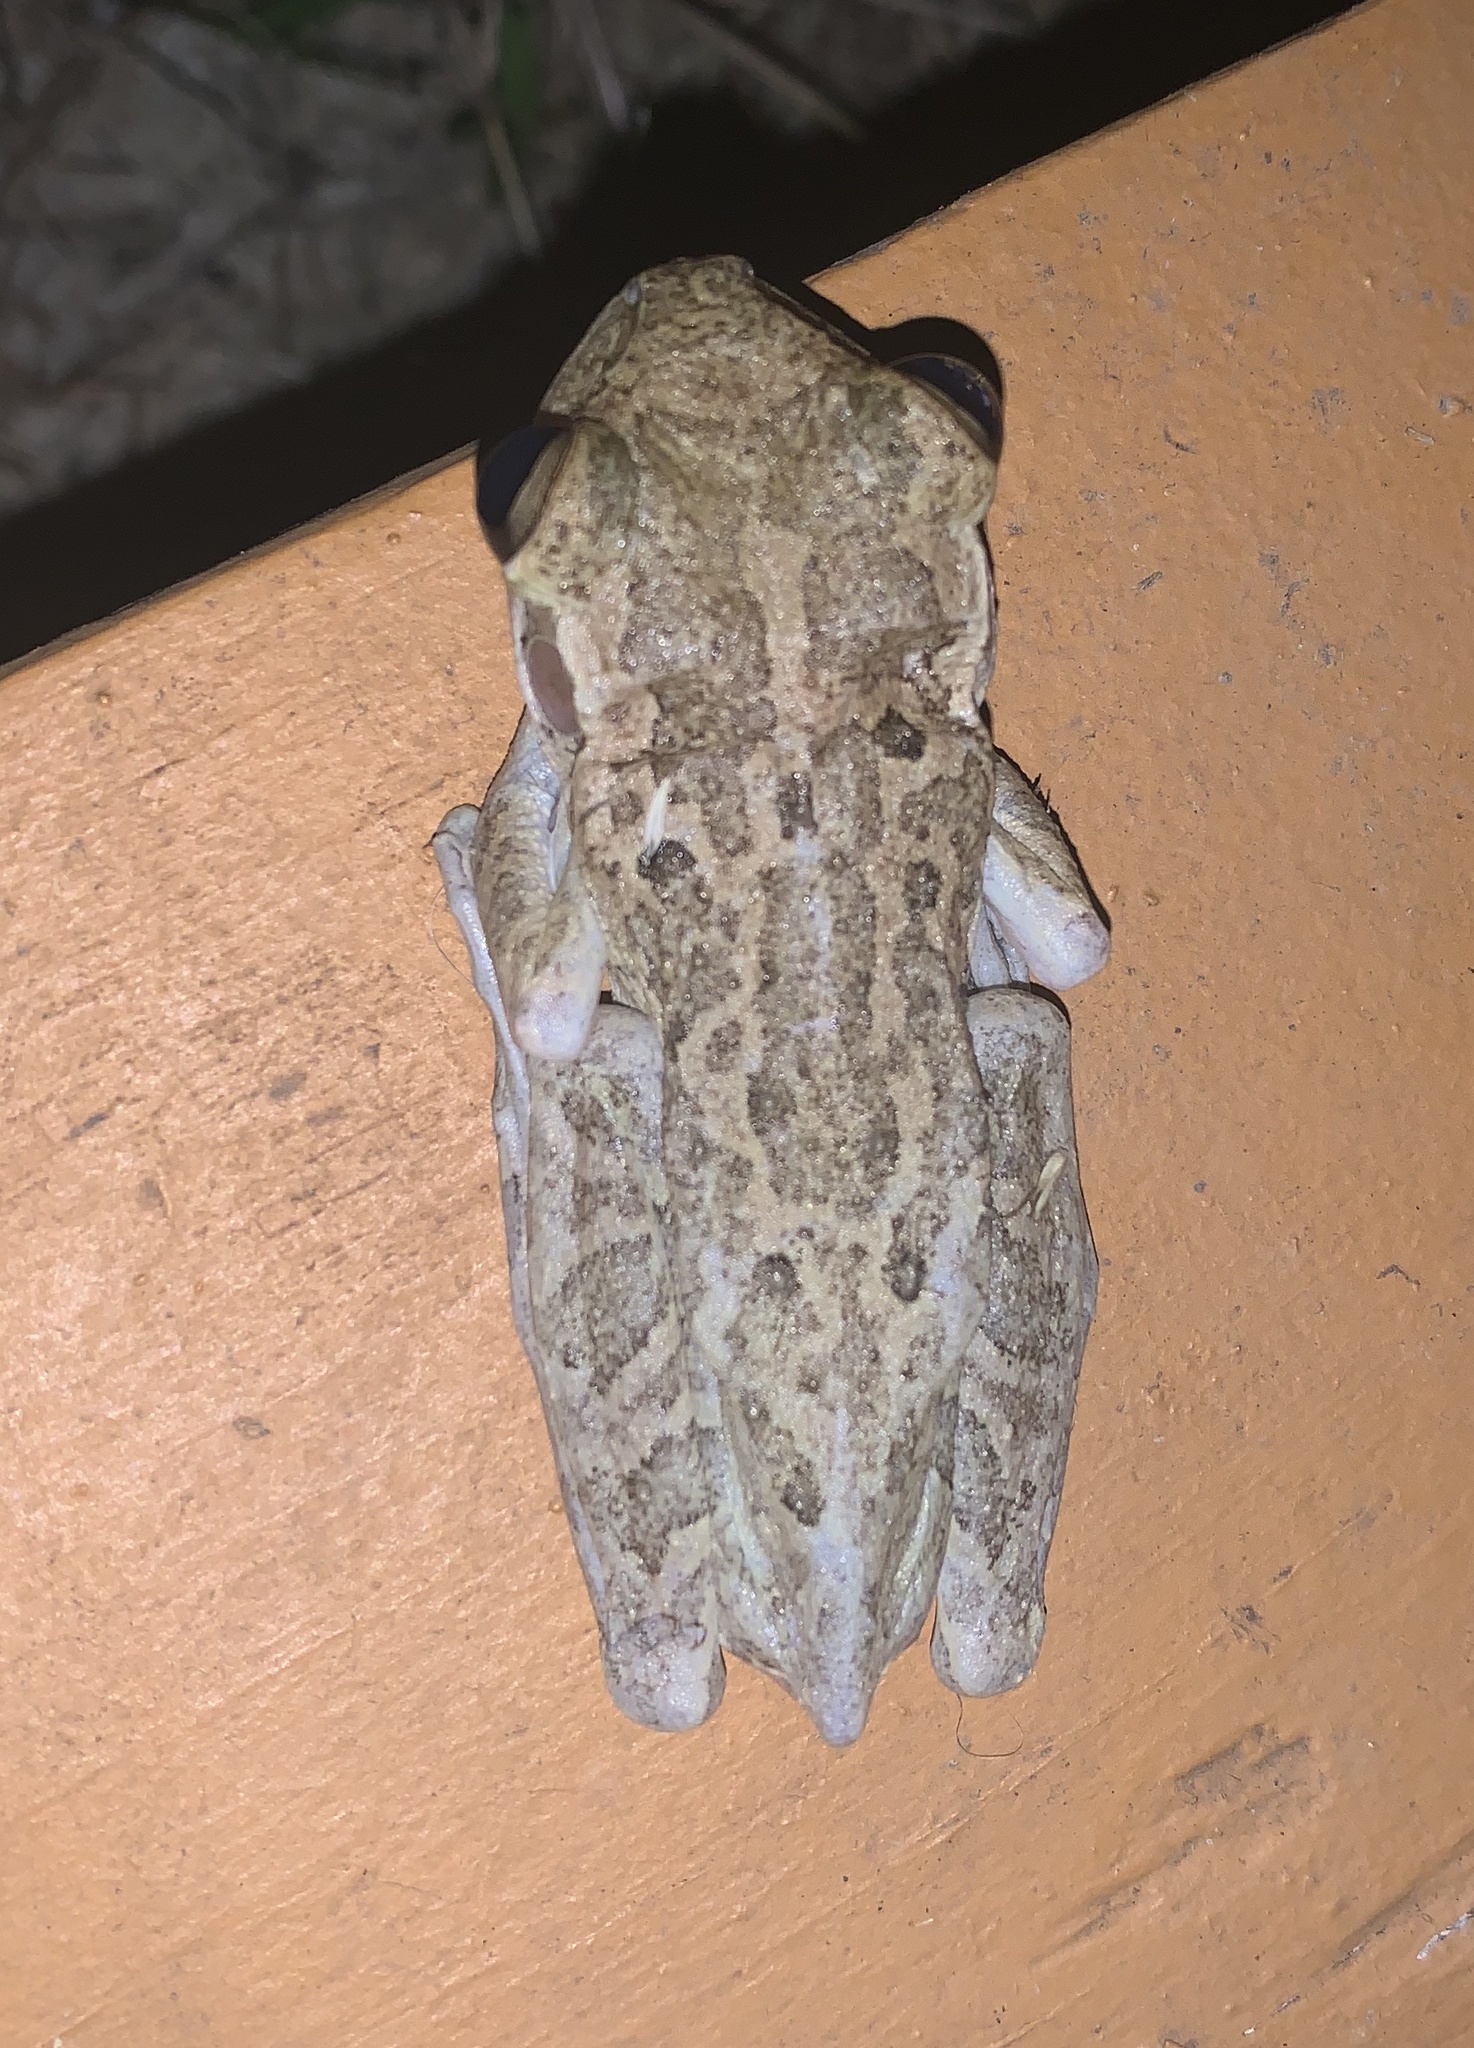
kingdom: Animalia
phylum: Chordata
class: Amphibia
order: Anura
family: Hylidae
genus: Osteopilus
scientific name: Osteopilus septentrionalis
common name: Cuban treefrog
